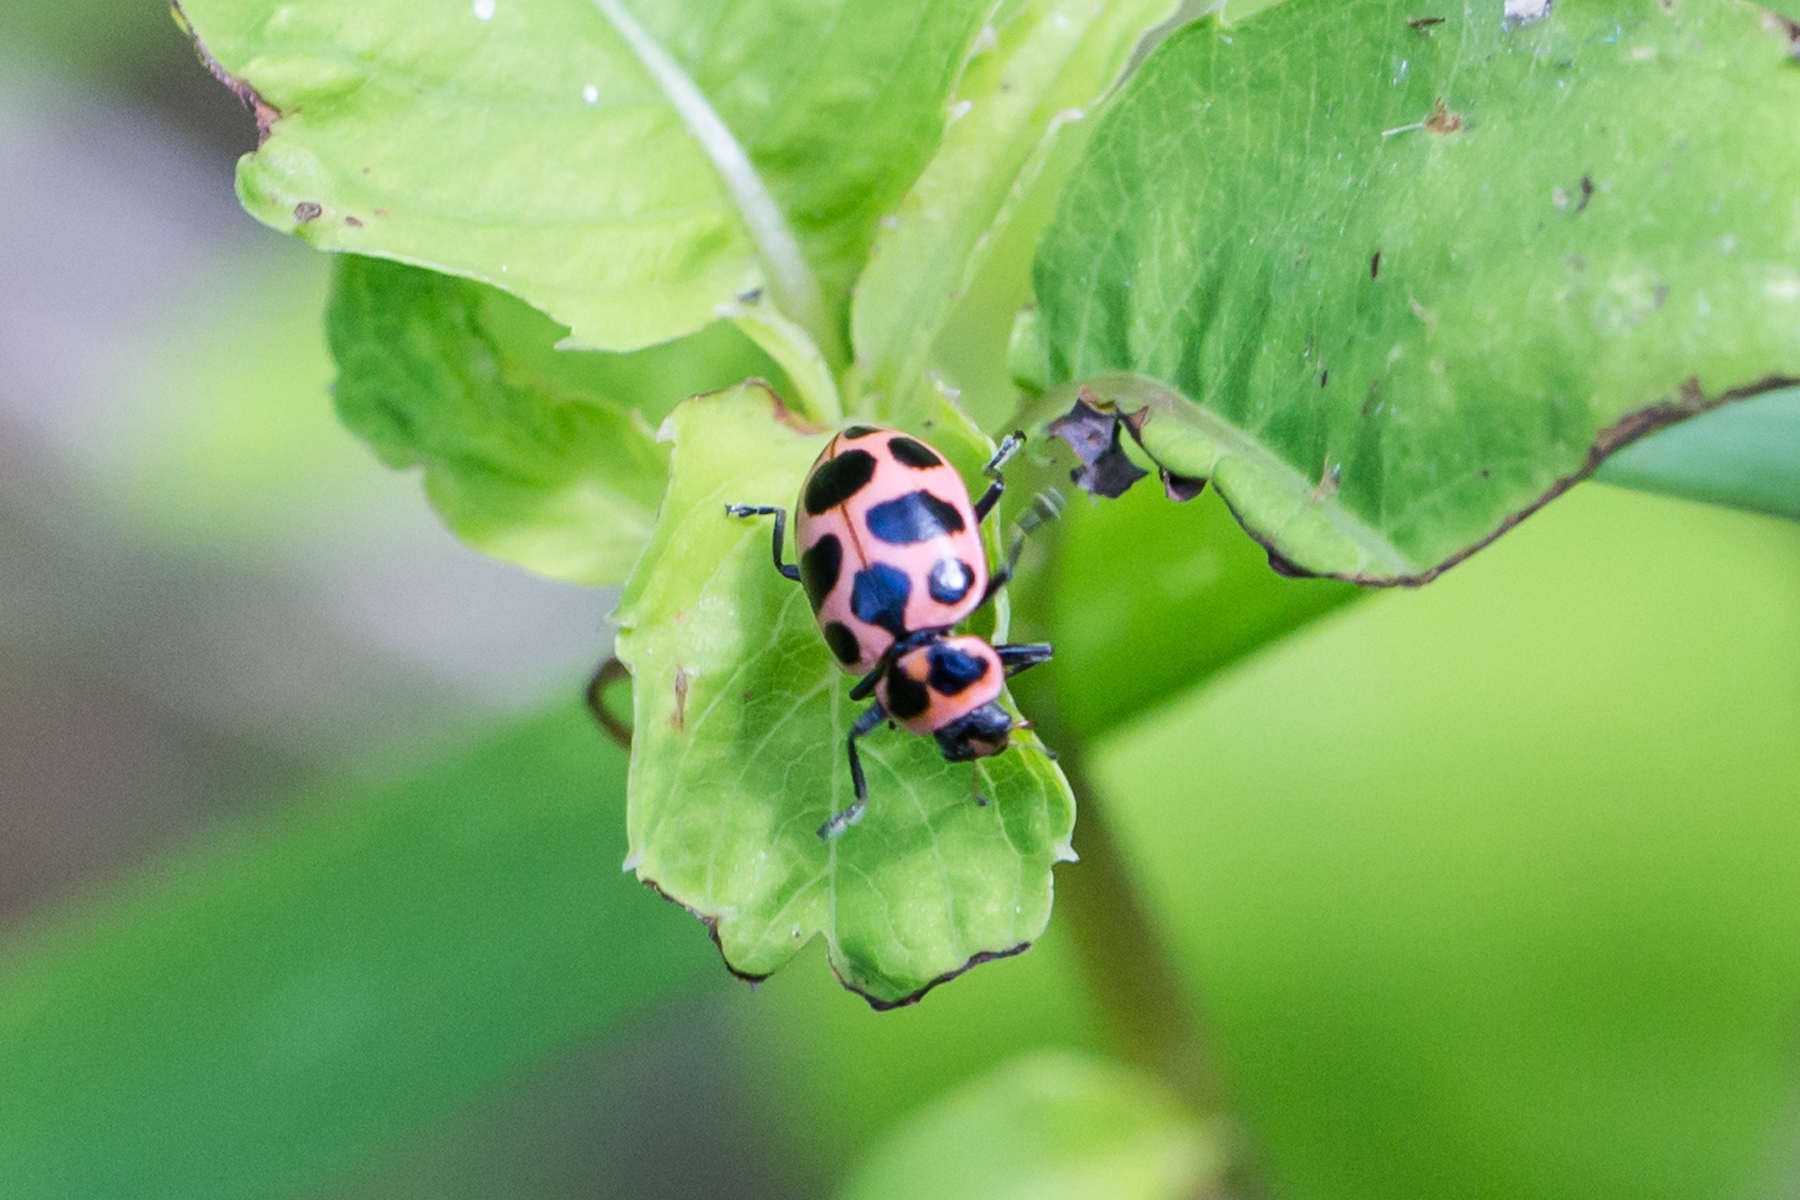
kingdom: Animalia
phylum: Arthropoda
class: Insecta
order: Coleoptera
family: Coccinellidae
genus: Coleomegilla
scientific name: Coleomegilla maculata
